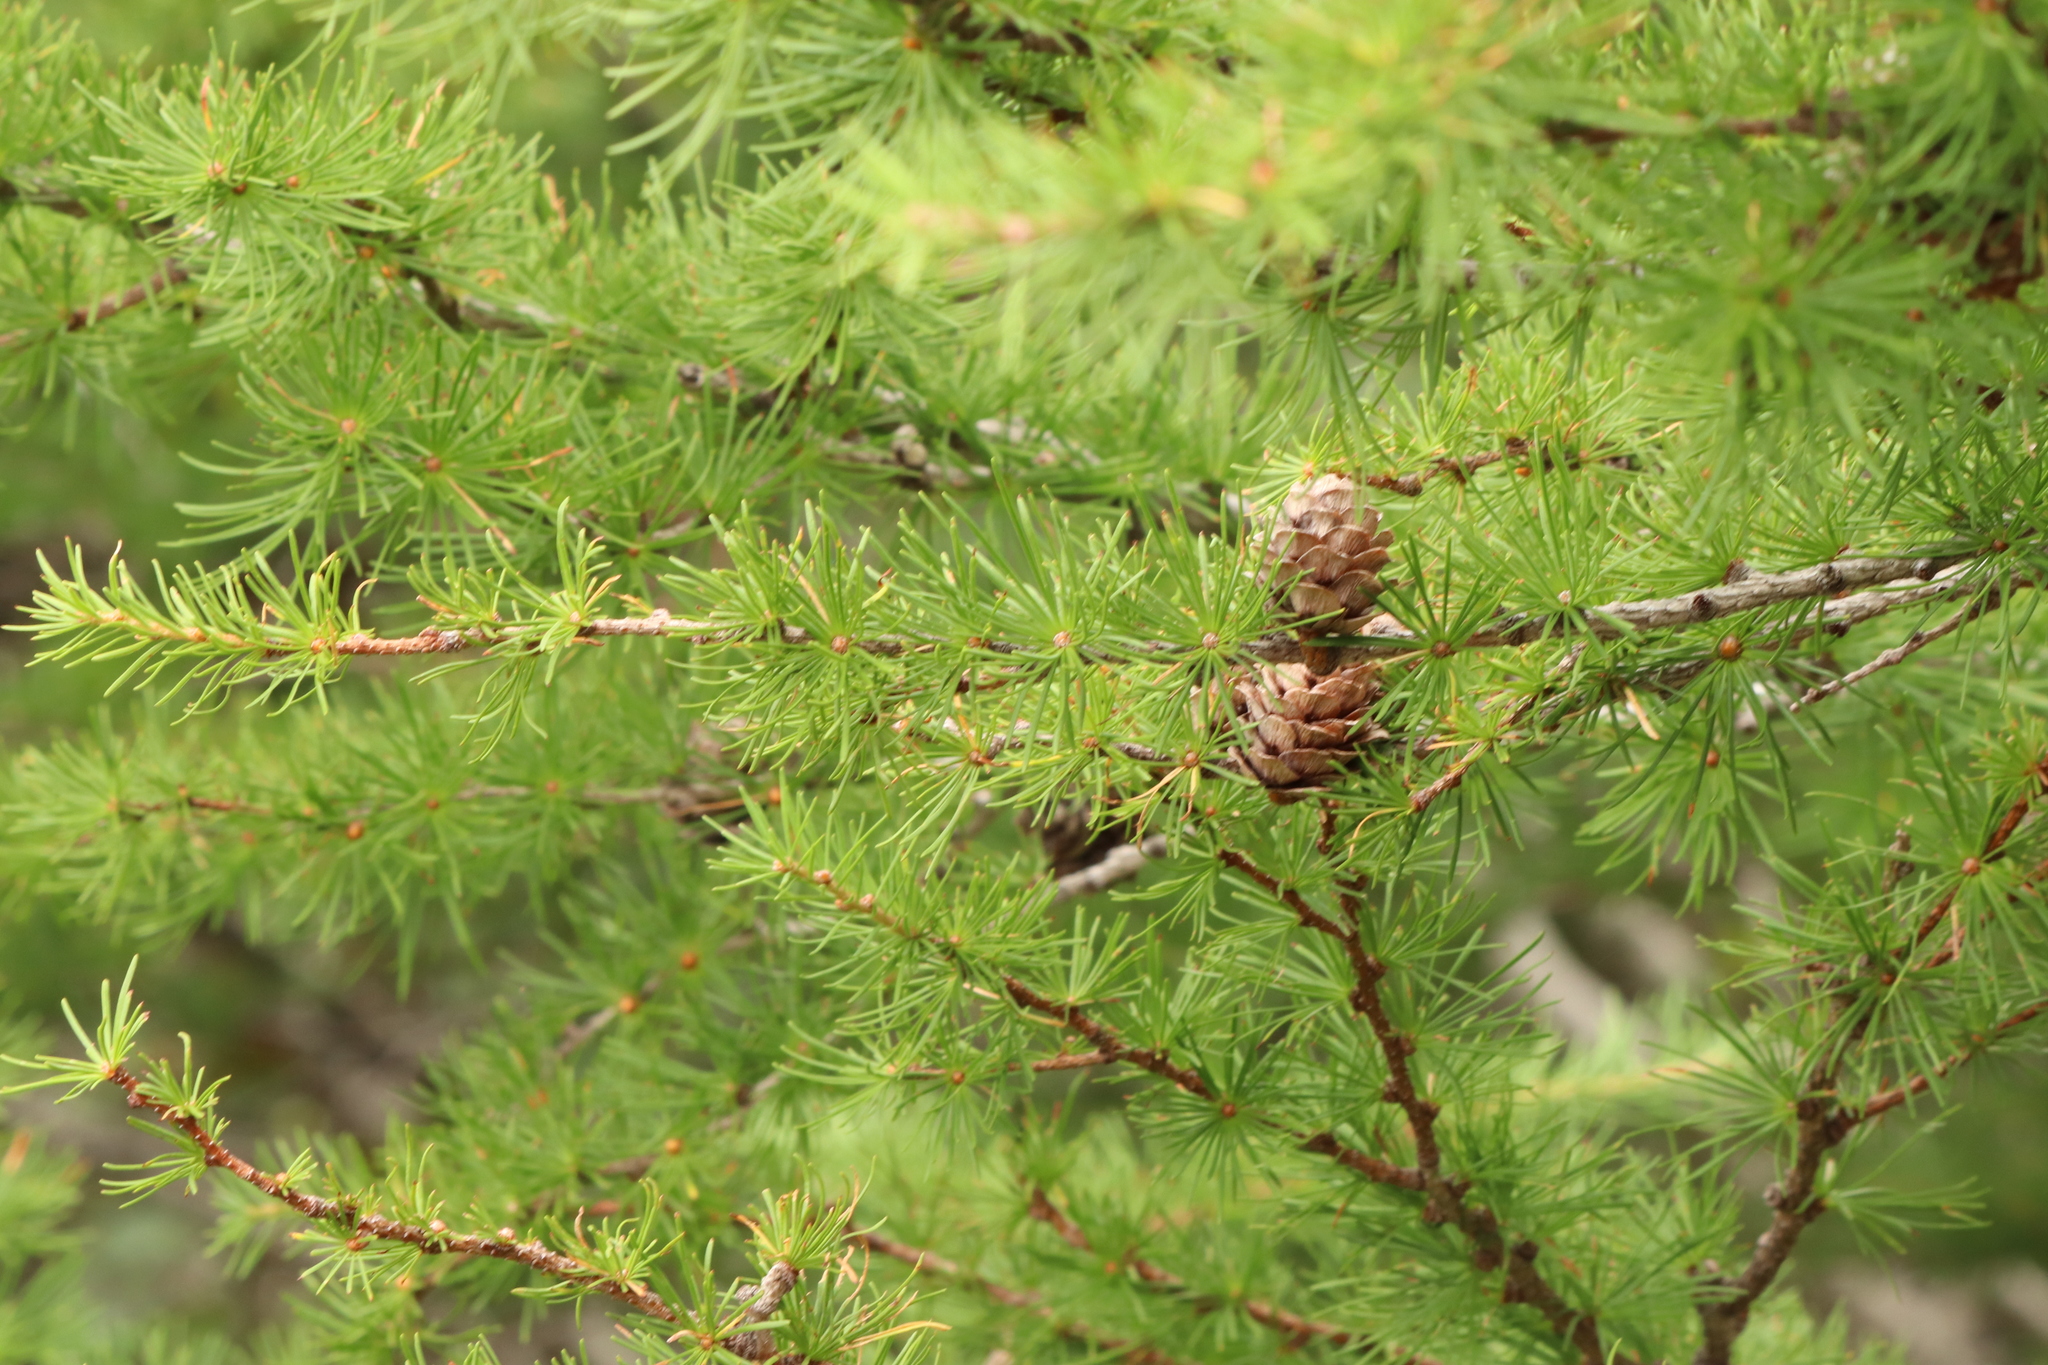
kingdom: Plantae
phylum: Tracheophyta
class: Pinopsida
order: Pinales
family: Pinaceae
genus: Larix
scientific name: Larix kaempferi
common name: Japanese larch
